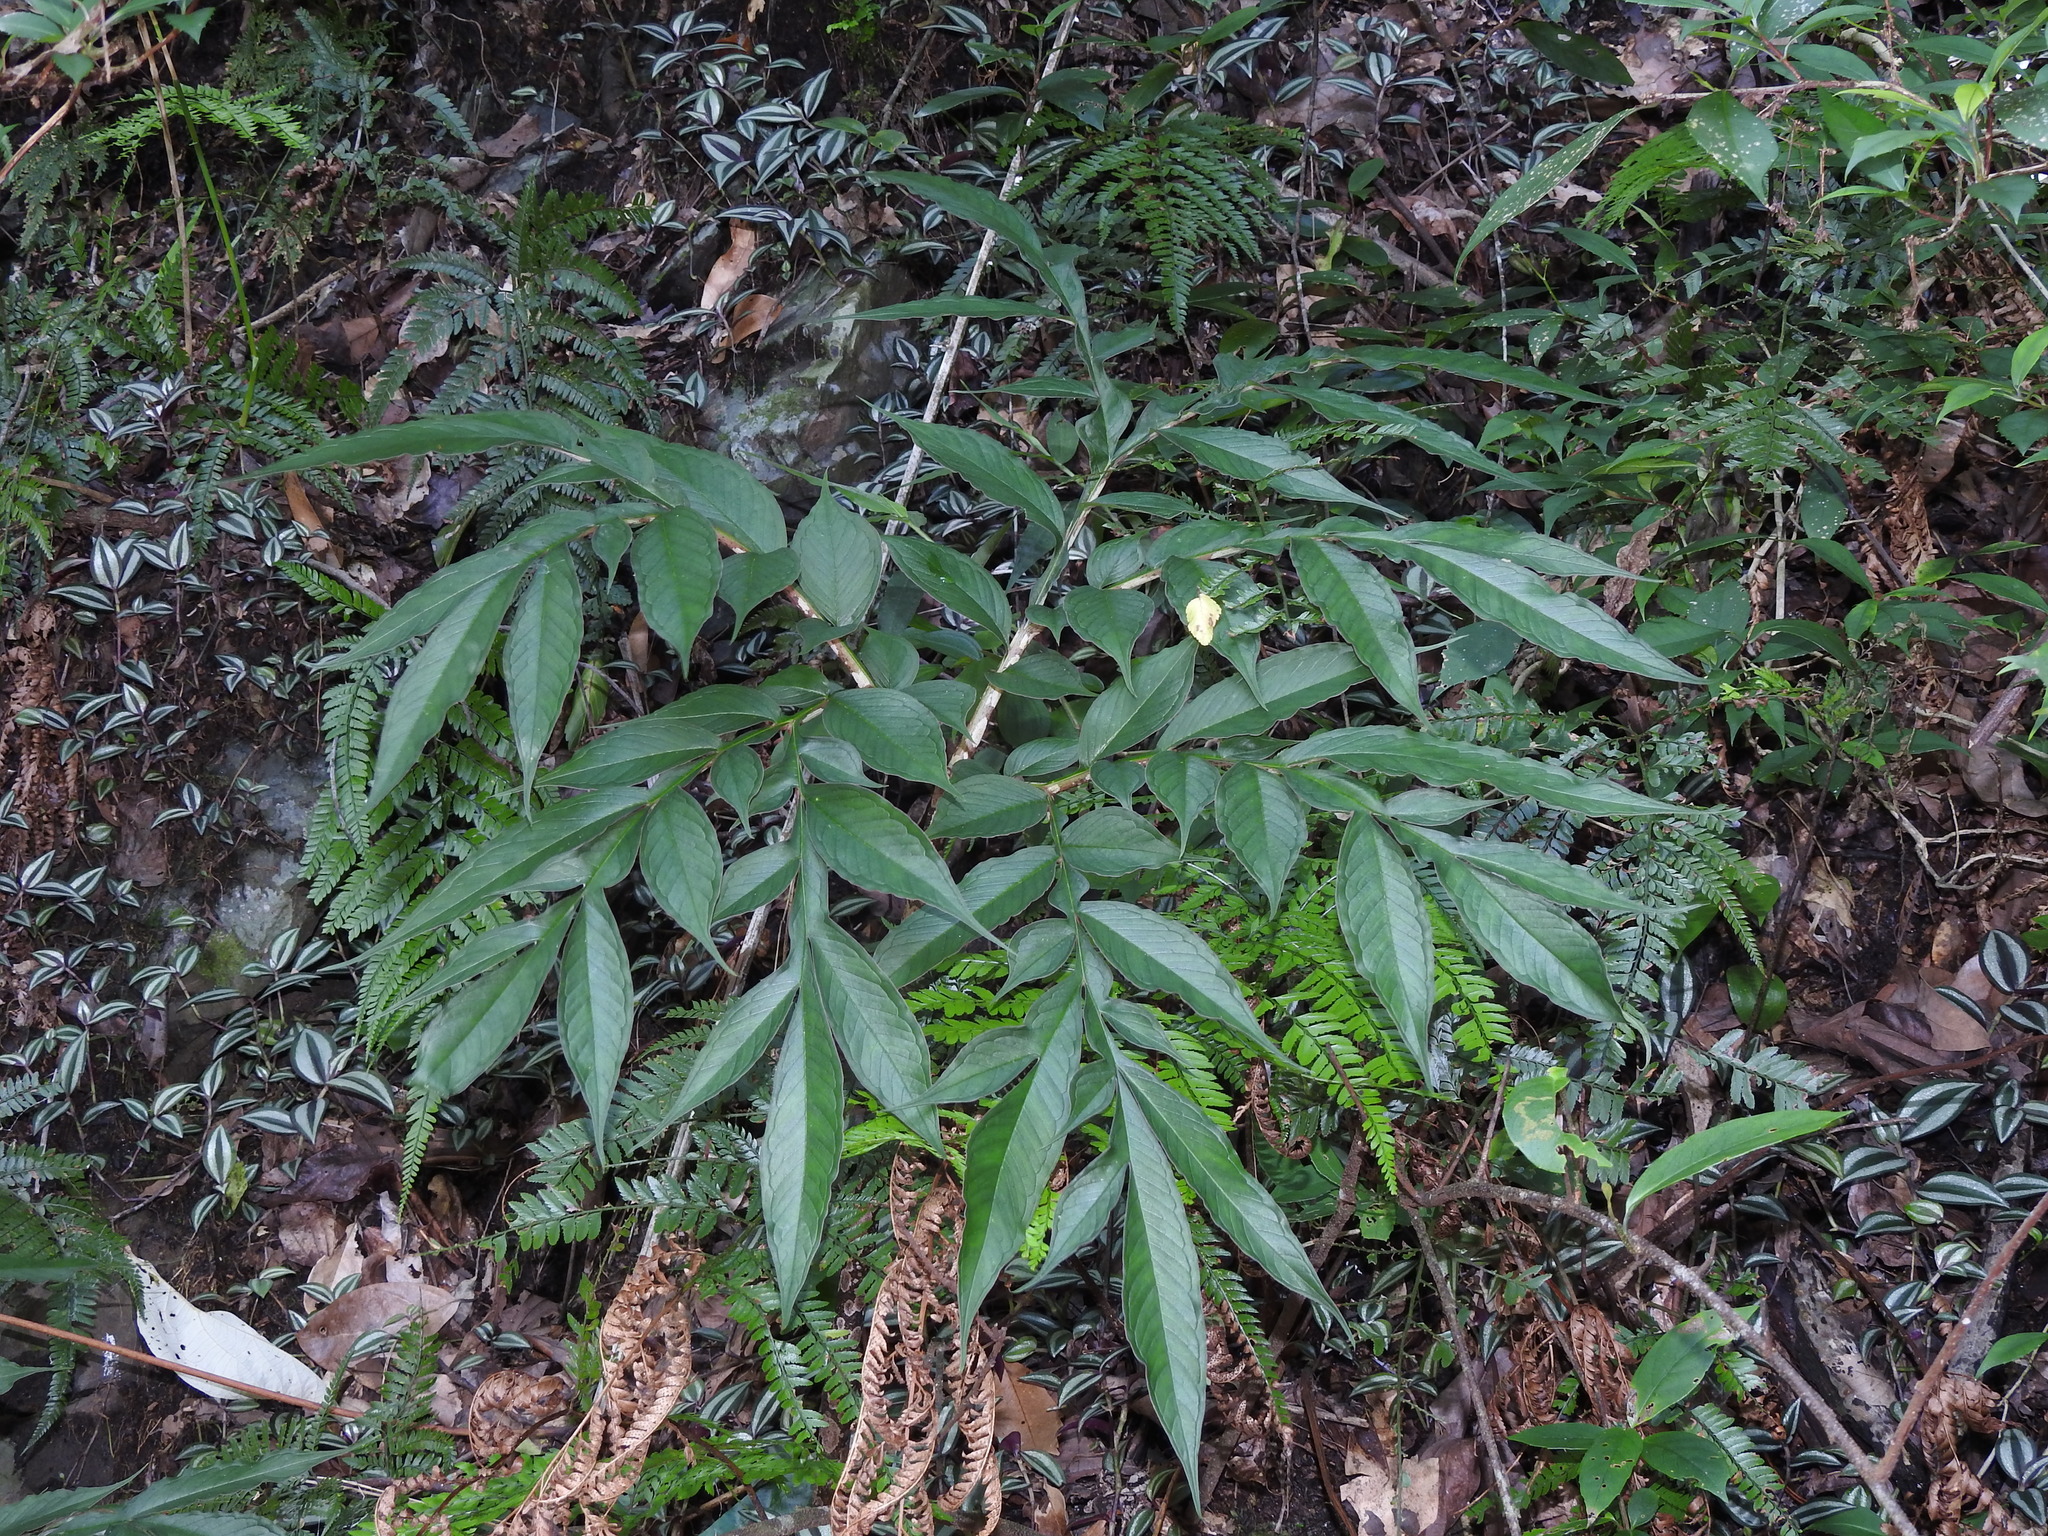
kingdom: Plantae
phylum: Tracheophyta
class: Liliopsida
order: Alismatales
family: Araceae
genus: Amorphophallus
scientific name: Amorphophallus kiusianus
